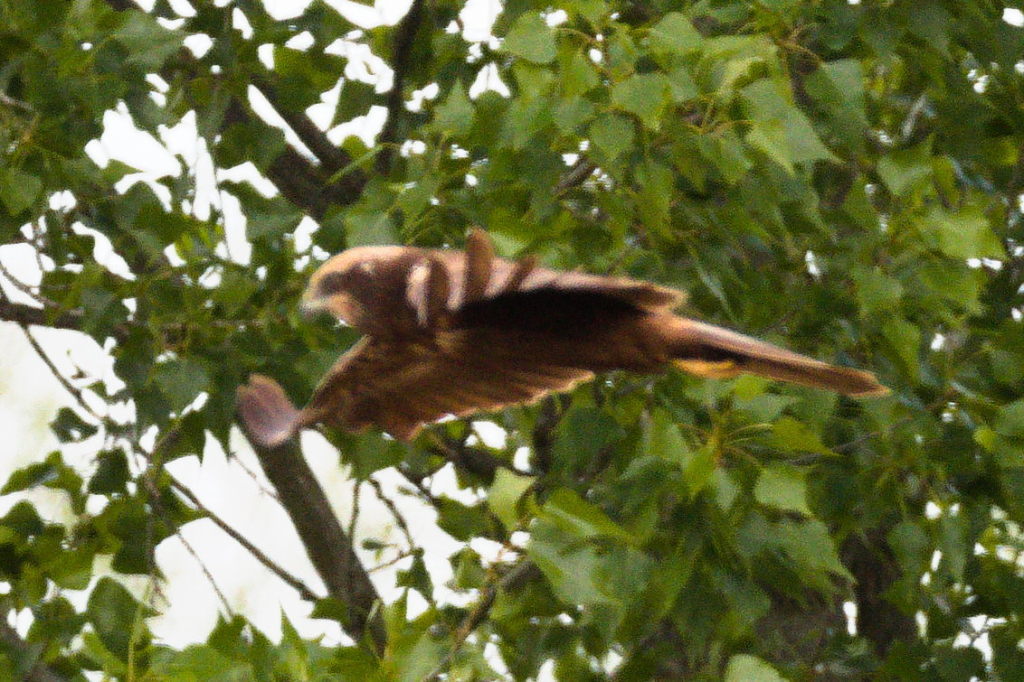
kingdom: Animalia
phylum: Chordata
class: Aves
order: Accipitriformes
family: Accipitridae
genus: Circus
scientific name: Circus aeruginosus
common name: Western marsh harrier
